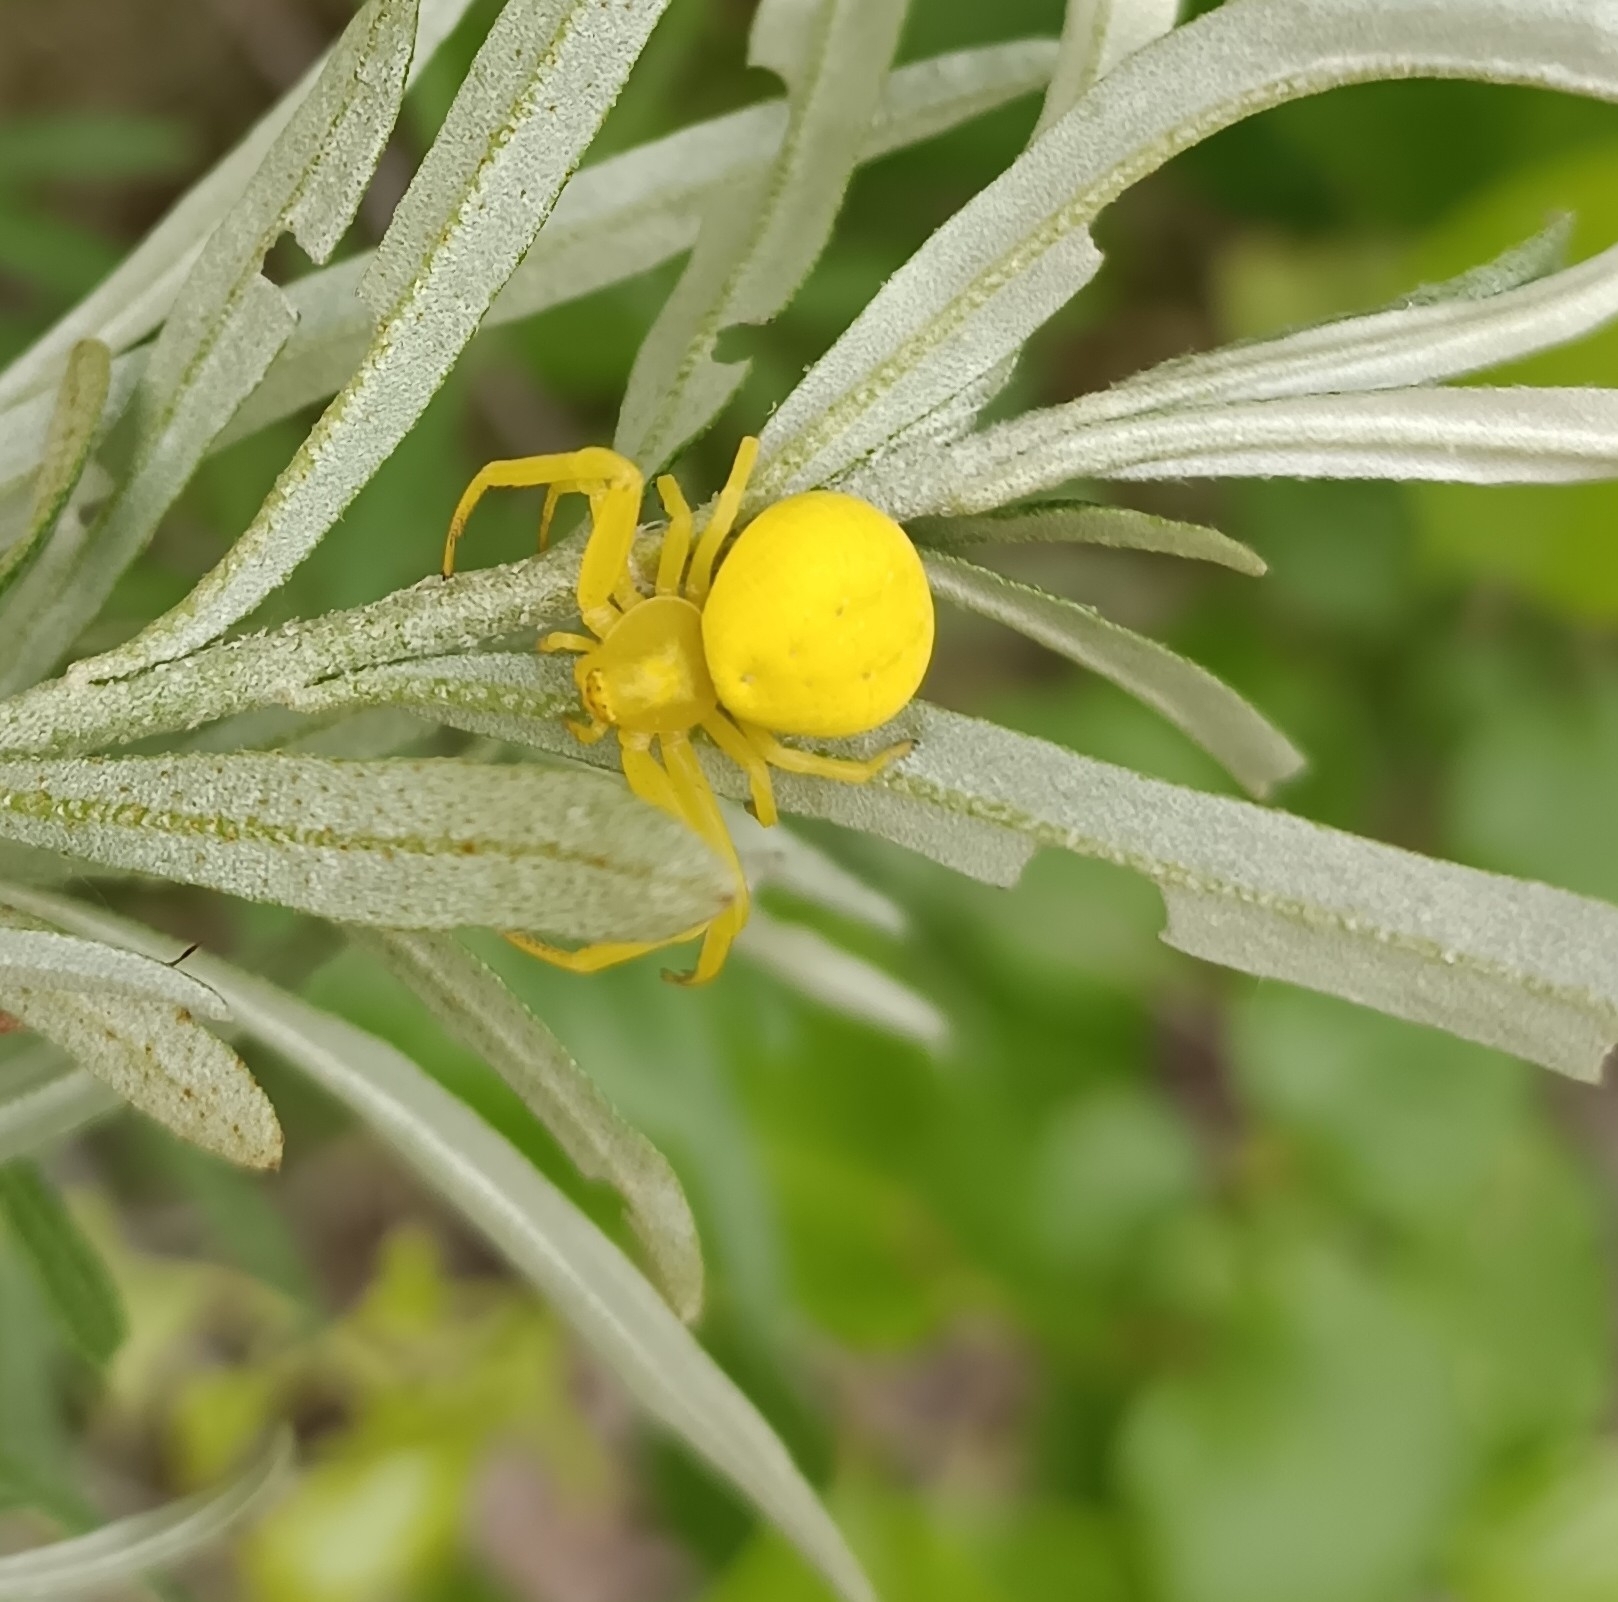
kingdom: Animalia
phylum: Arthropoda
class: Arachnida
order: Araneae
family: Thomisidae
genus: Misumena
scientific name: Misumena vatia
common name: Goldenrod crab spider
